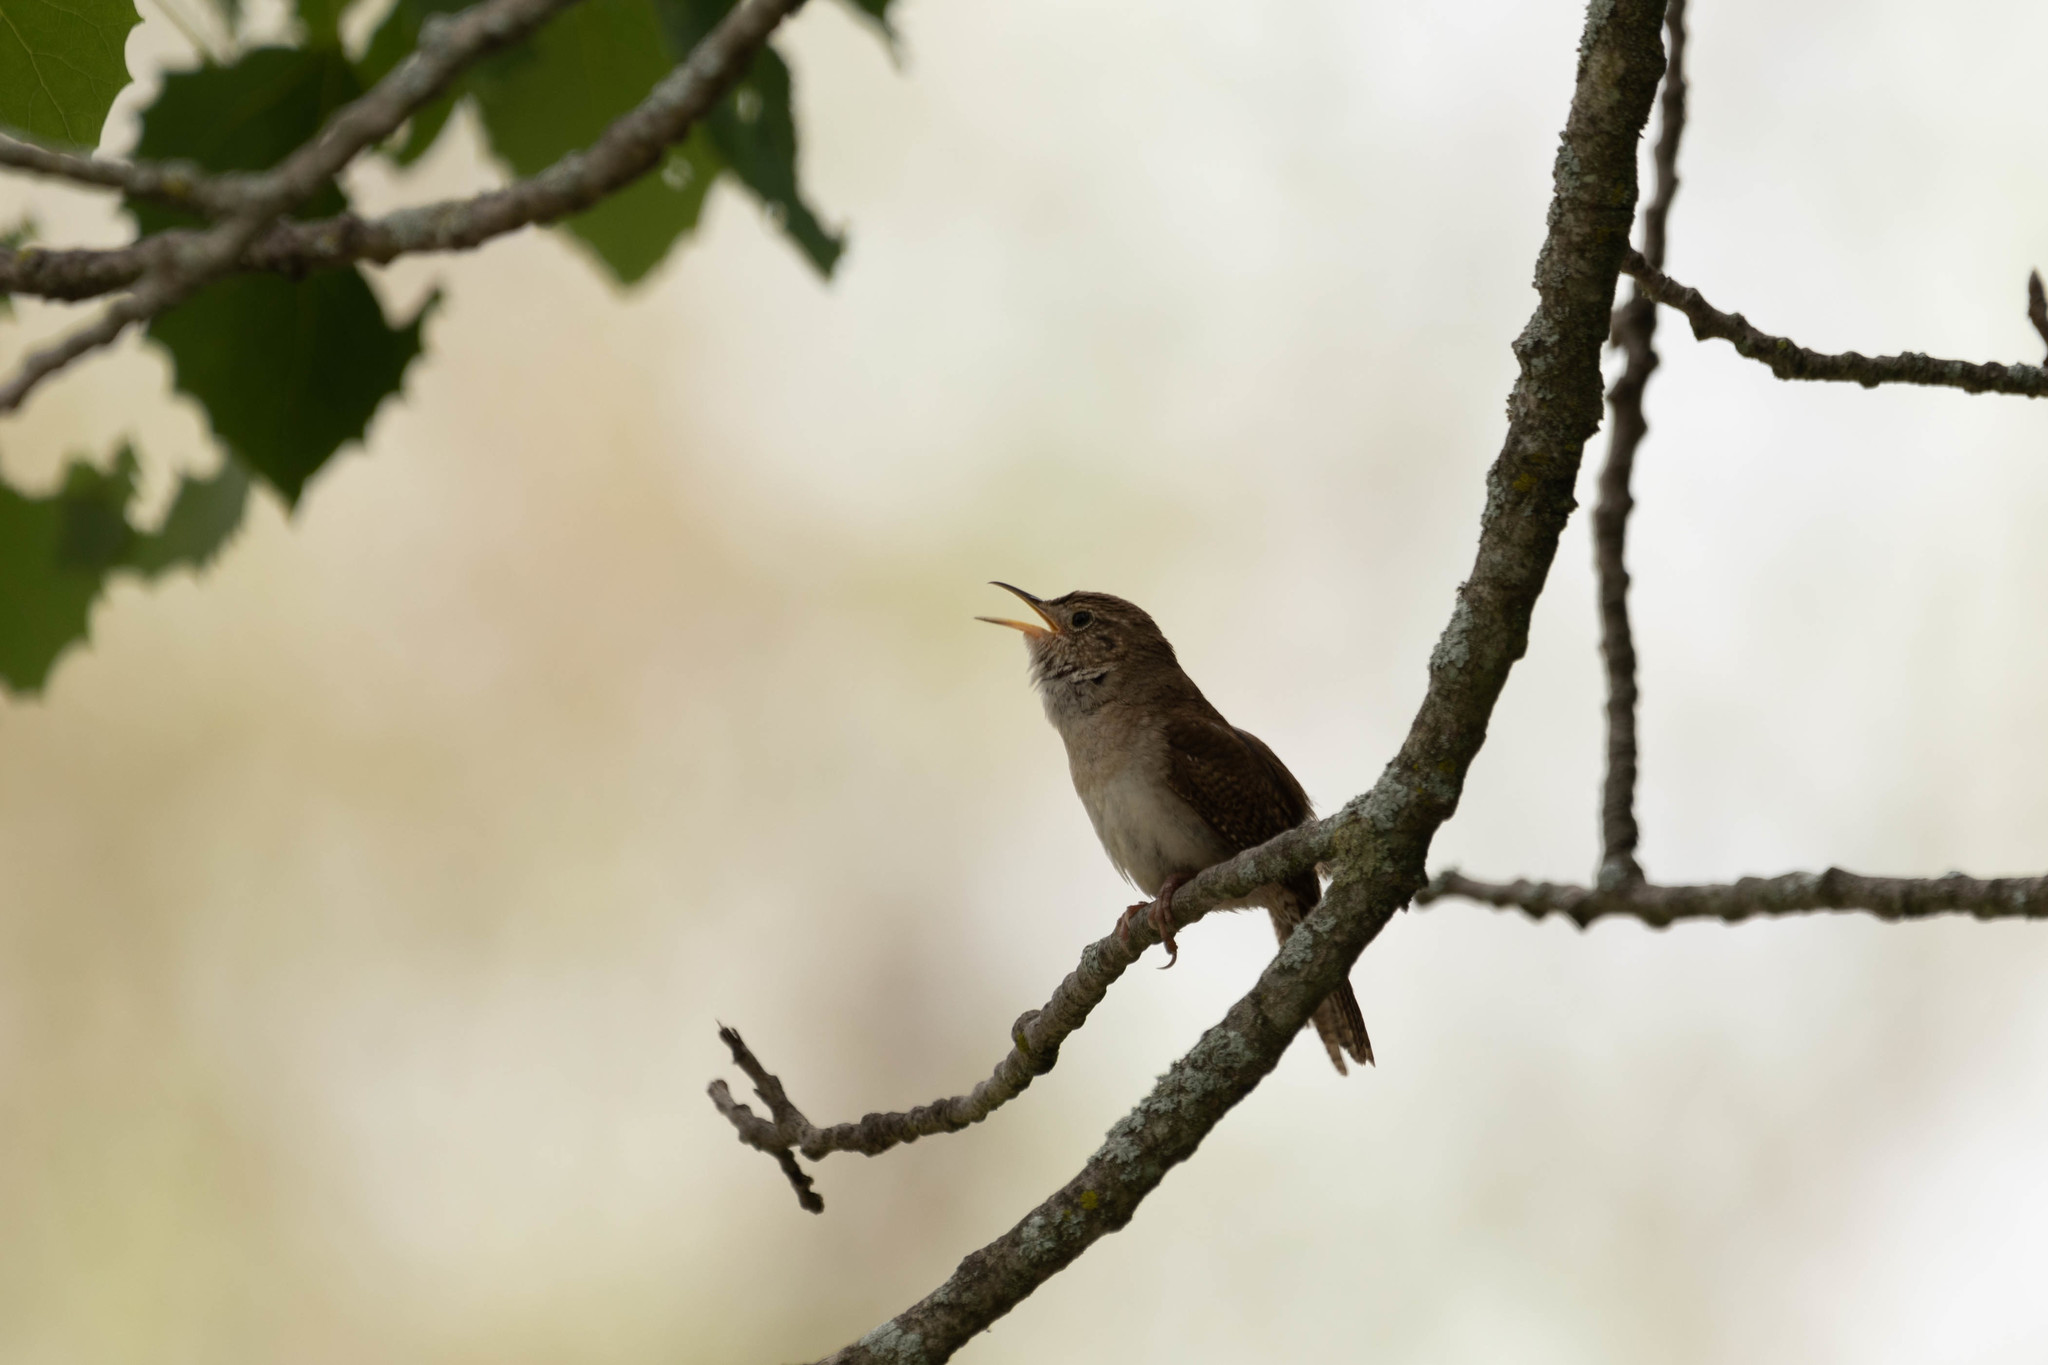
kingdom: Animalia
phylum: Chordata
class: Aves
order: Passeriformes
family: Troglodytidae
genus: Troglodytes
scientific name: Troglodytes aedon
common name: House wren
